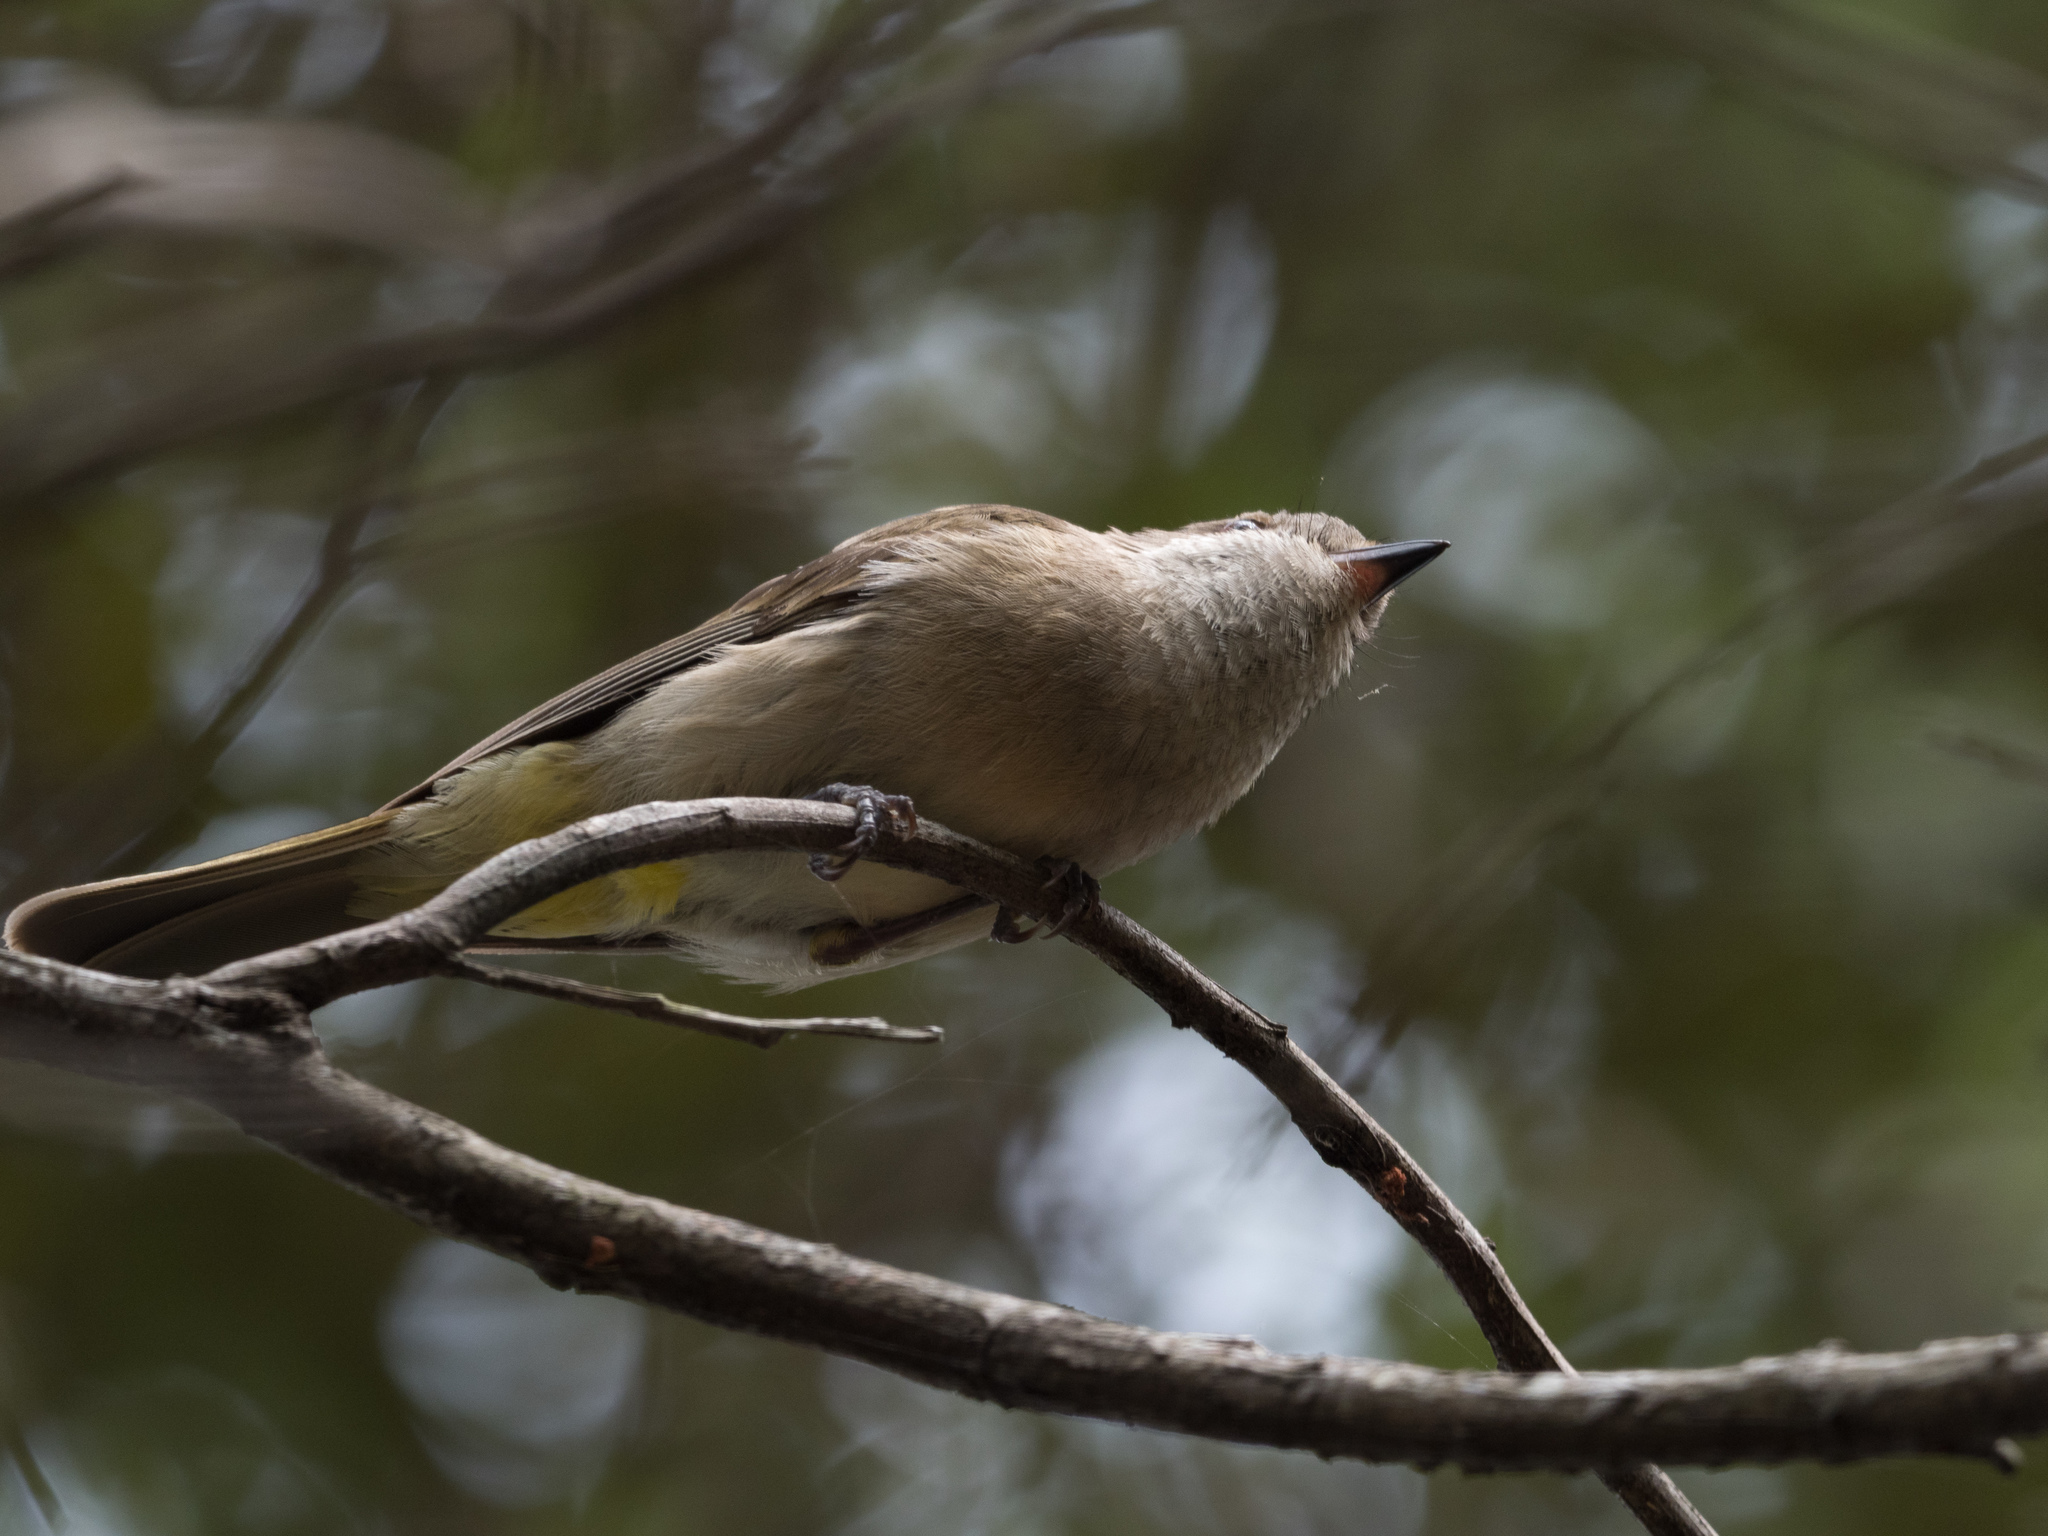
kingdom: Animalia
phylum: Chordata
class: Aves
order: Passeriformes
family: Pachycephalidae
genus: Pachycephala
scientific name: Pachycephala pectoralis
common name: Australian golden whistler
